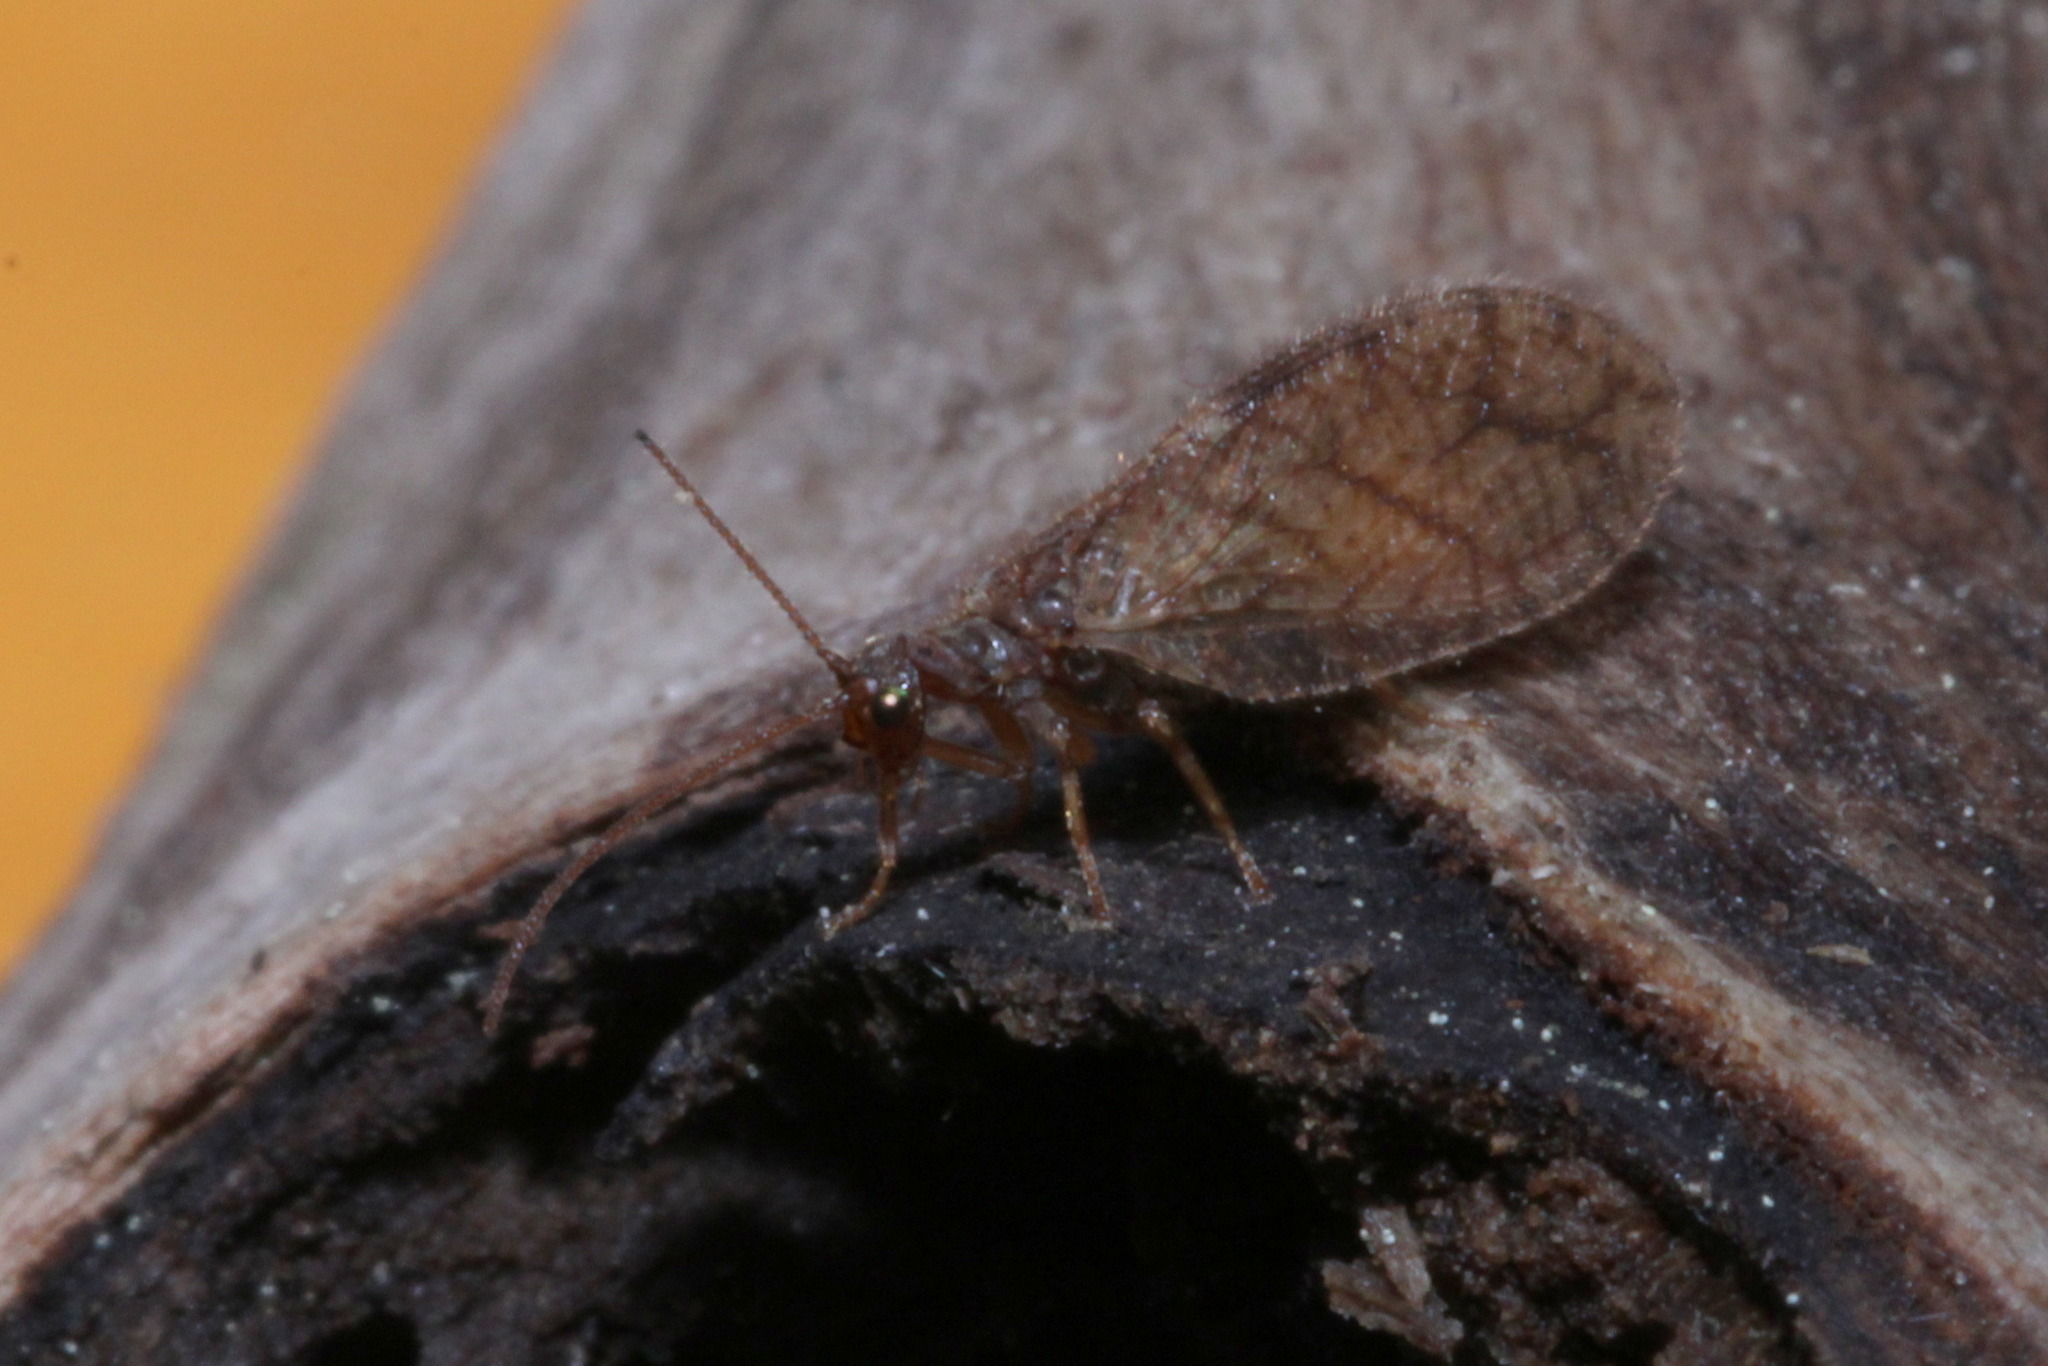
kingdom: Animalia
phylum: Arthropoda
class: Insecta
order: Neuroptera
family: Hemerobiidae
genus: Micromus
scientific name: Micromus angulatus
